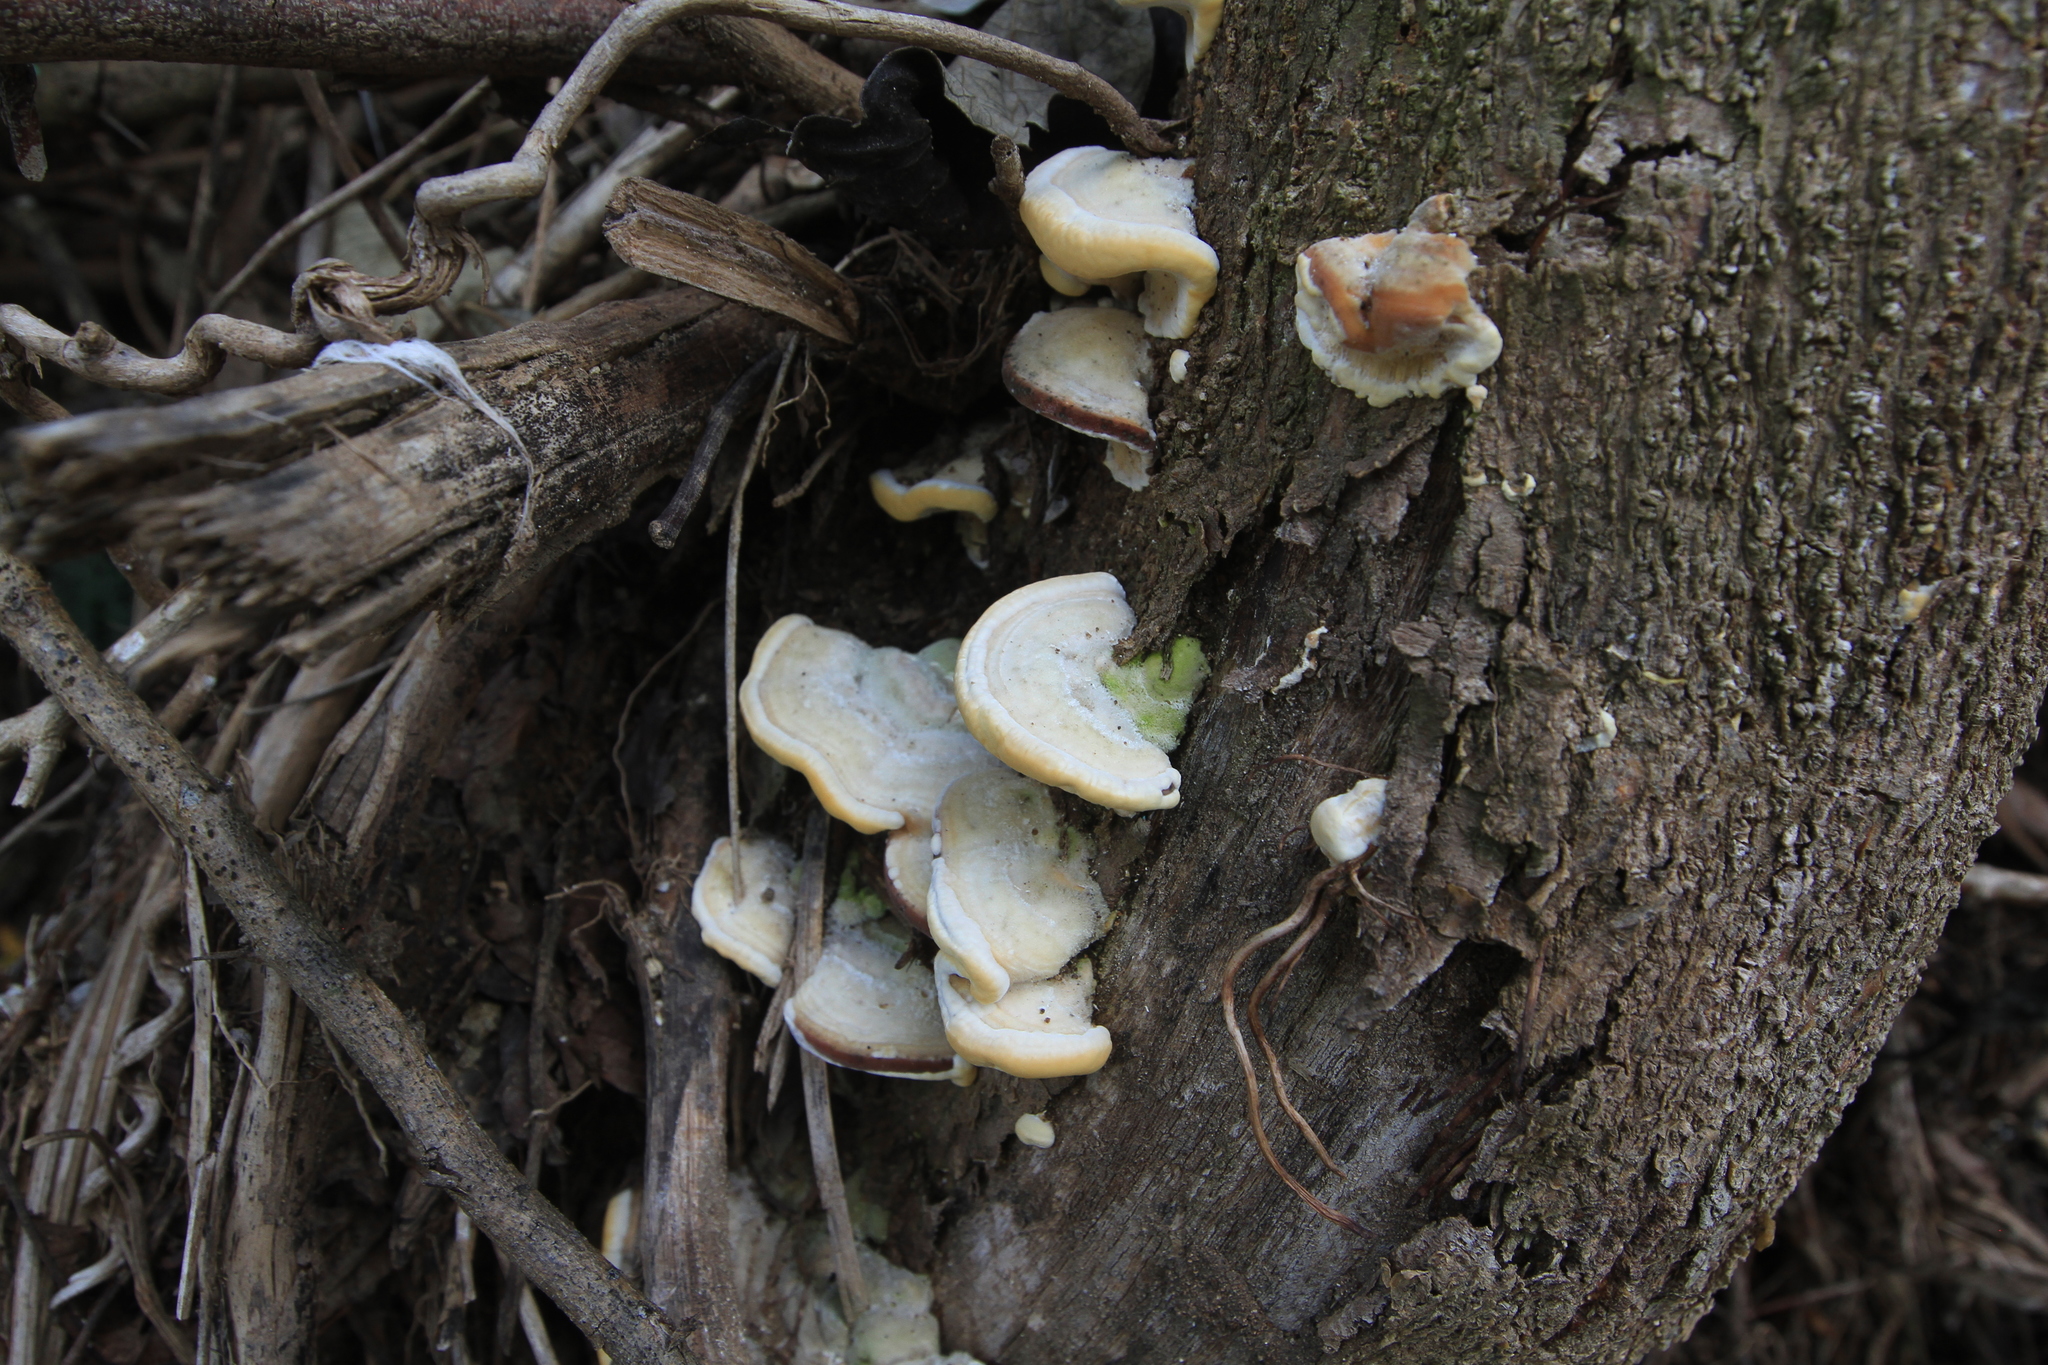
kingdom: Fungi
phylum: Basidiomycota
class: Agaricomycetes
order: Polyporales
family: Polyporaceae
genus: Trametes
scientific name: Trametes maxima
